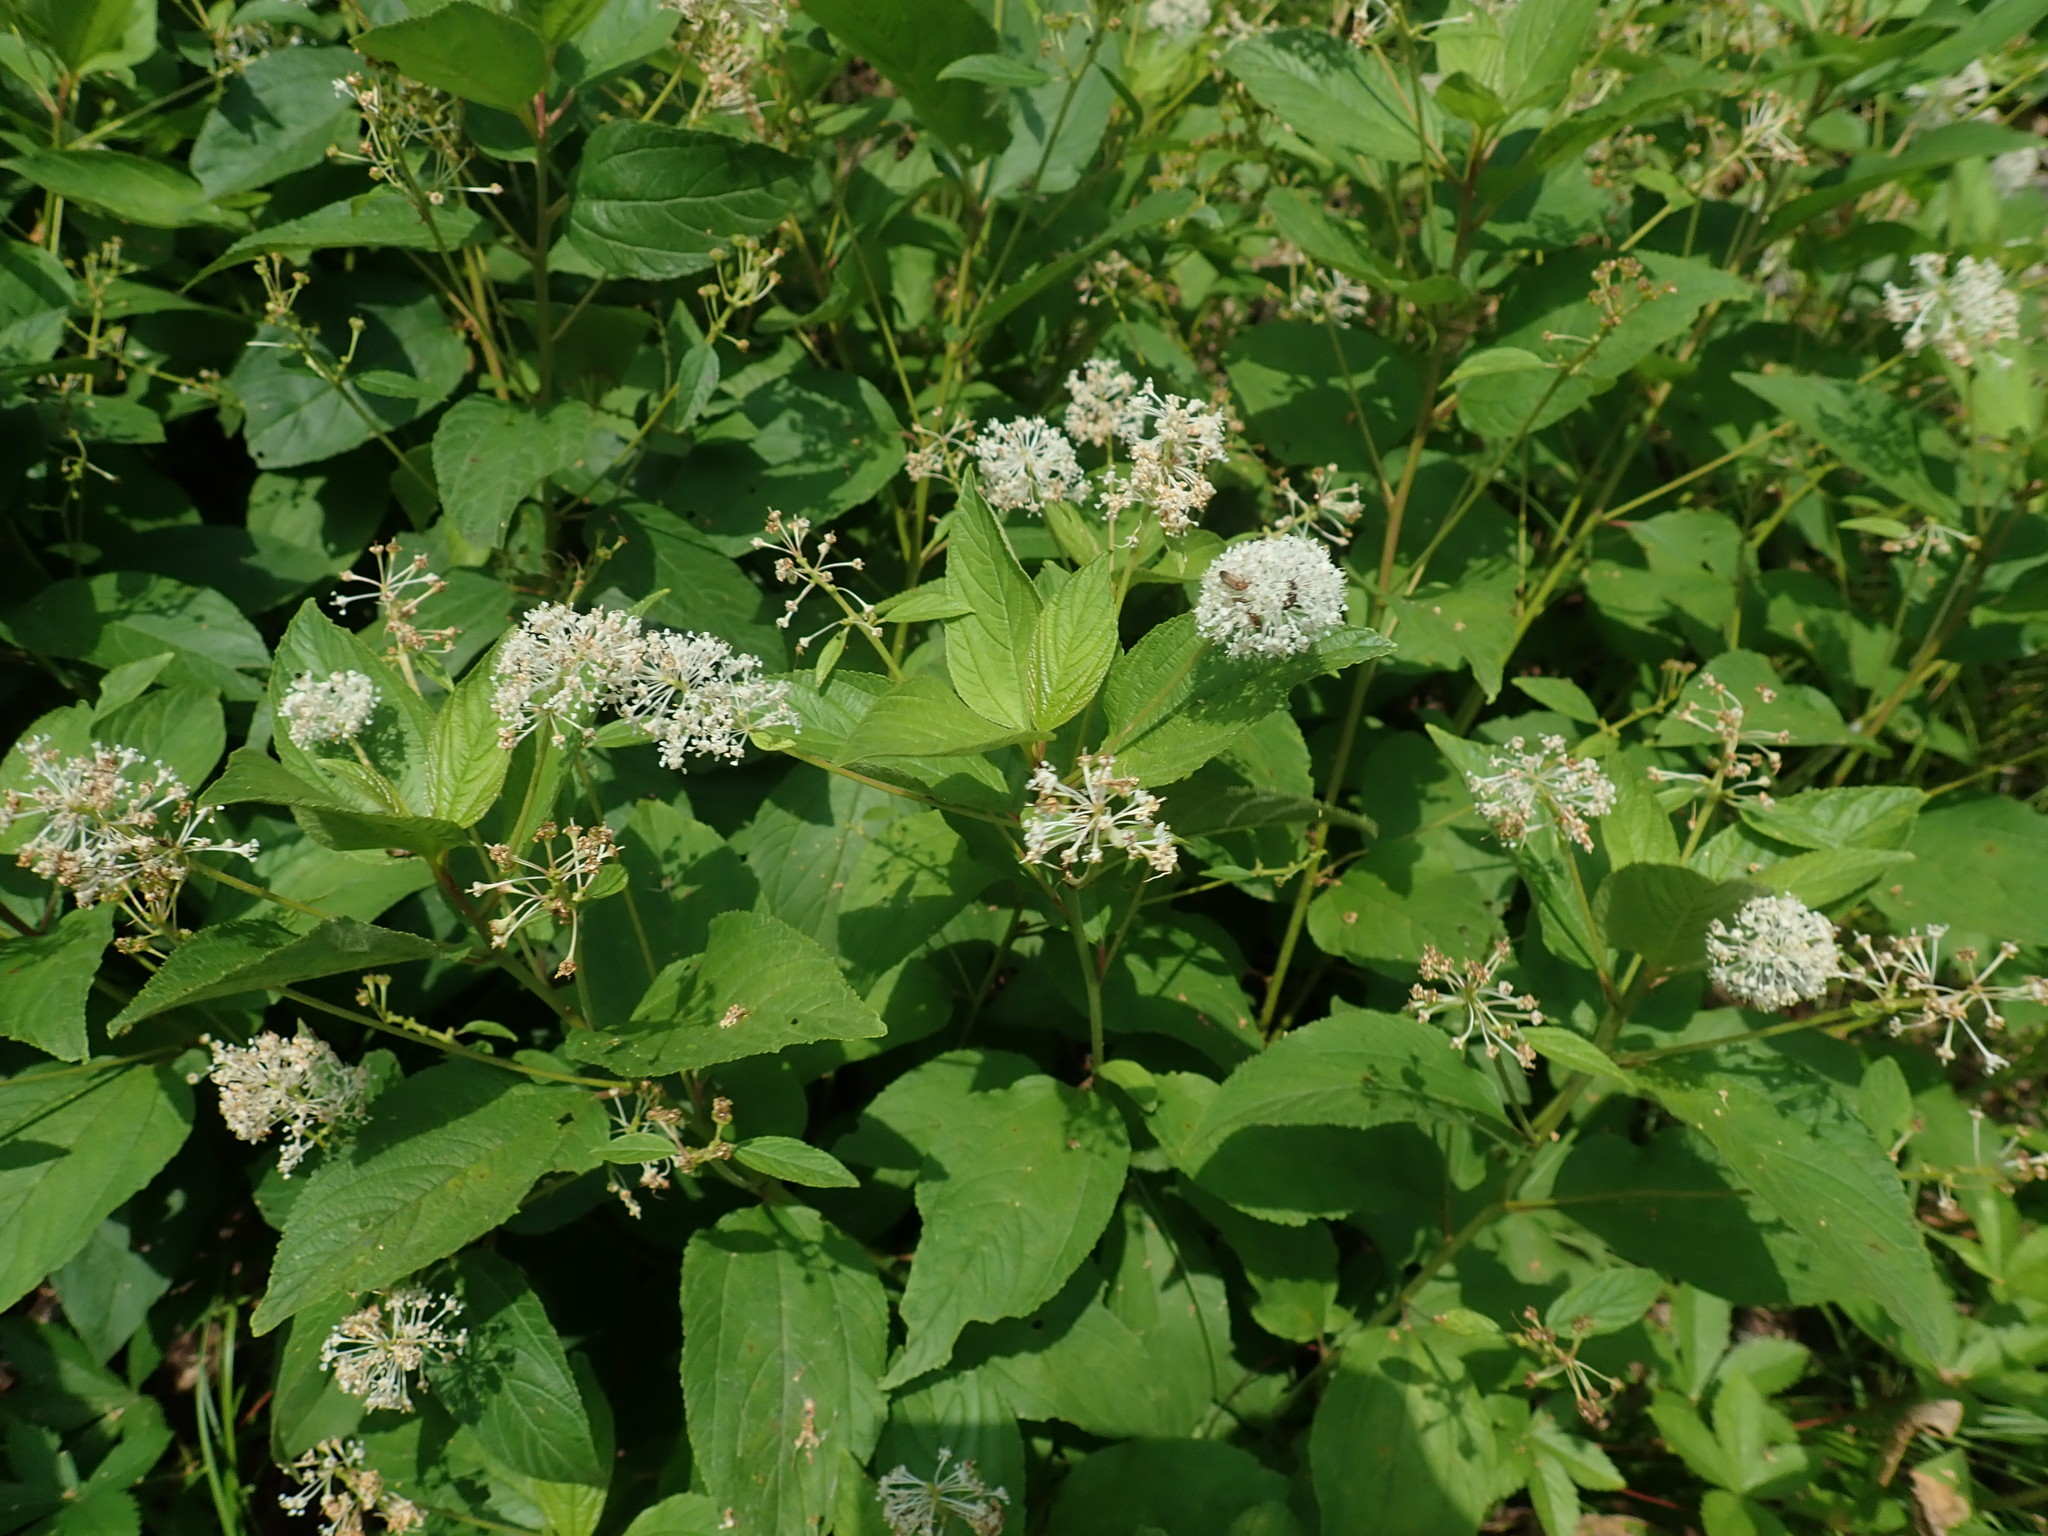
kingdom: Plantae
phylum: Tracheophyta
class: Magnoliopsida
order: Rosales
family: Rhamnaceae
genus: Ceanothus
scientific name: Ceanothus americanus
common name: Redroot
